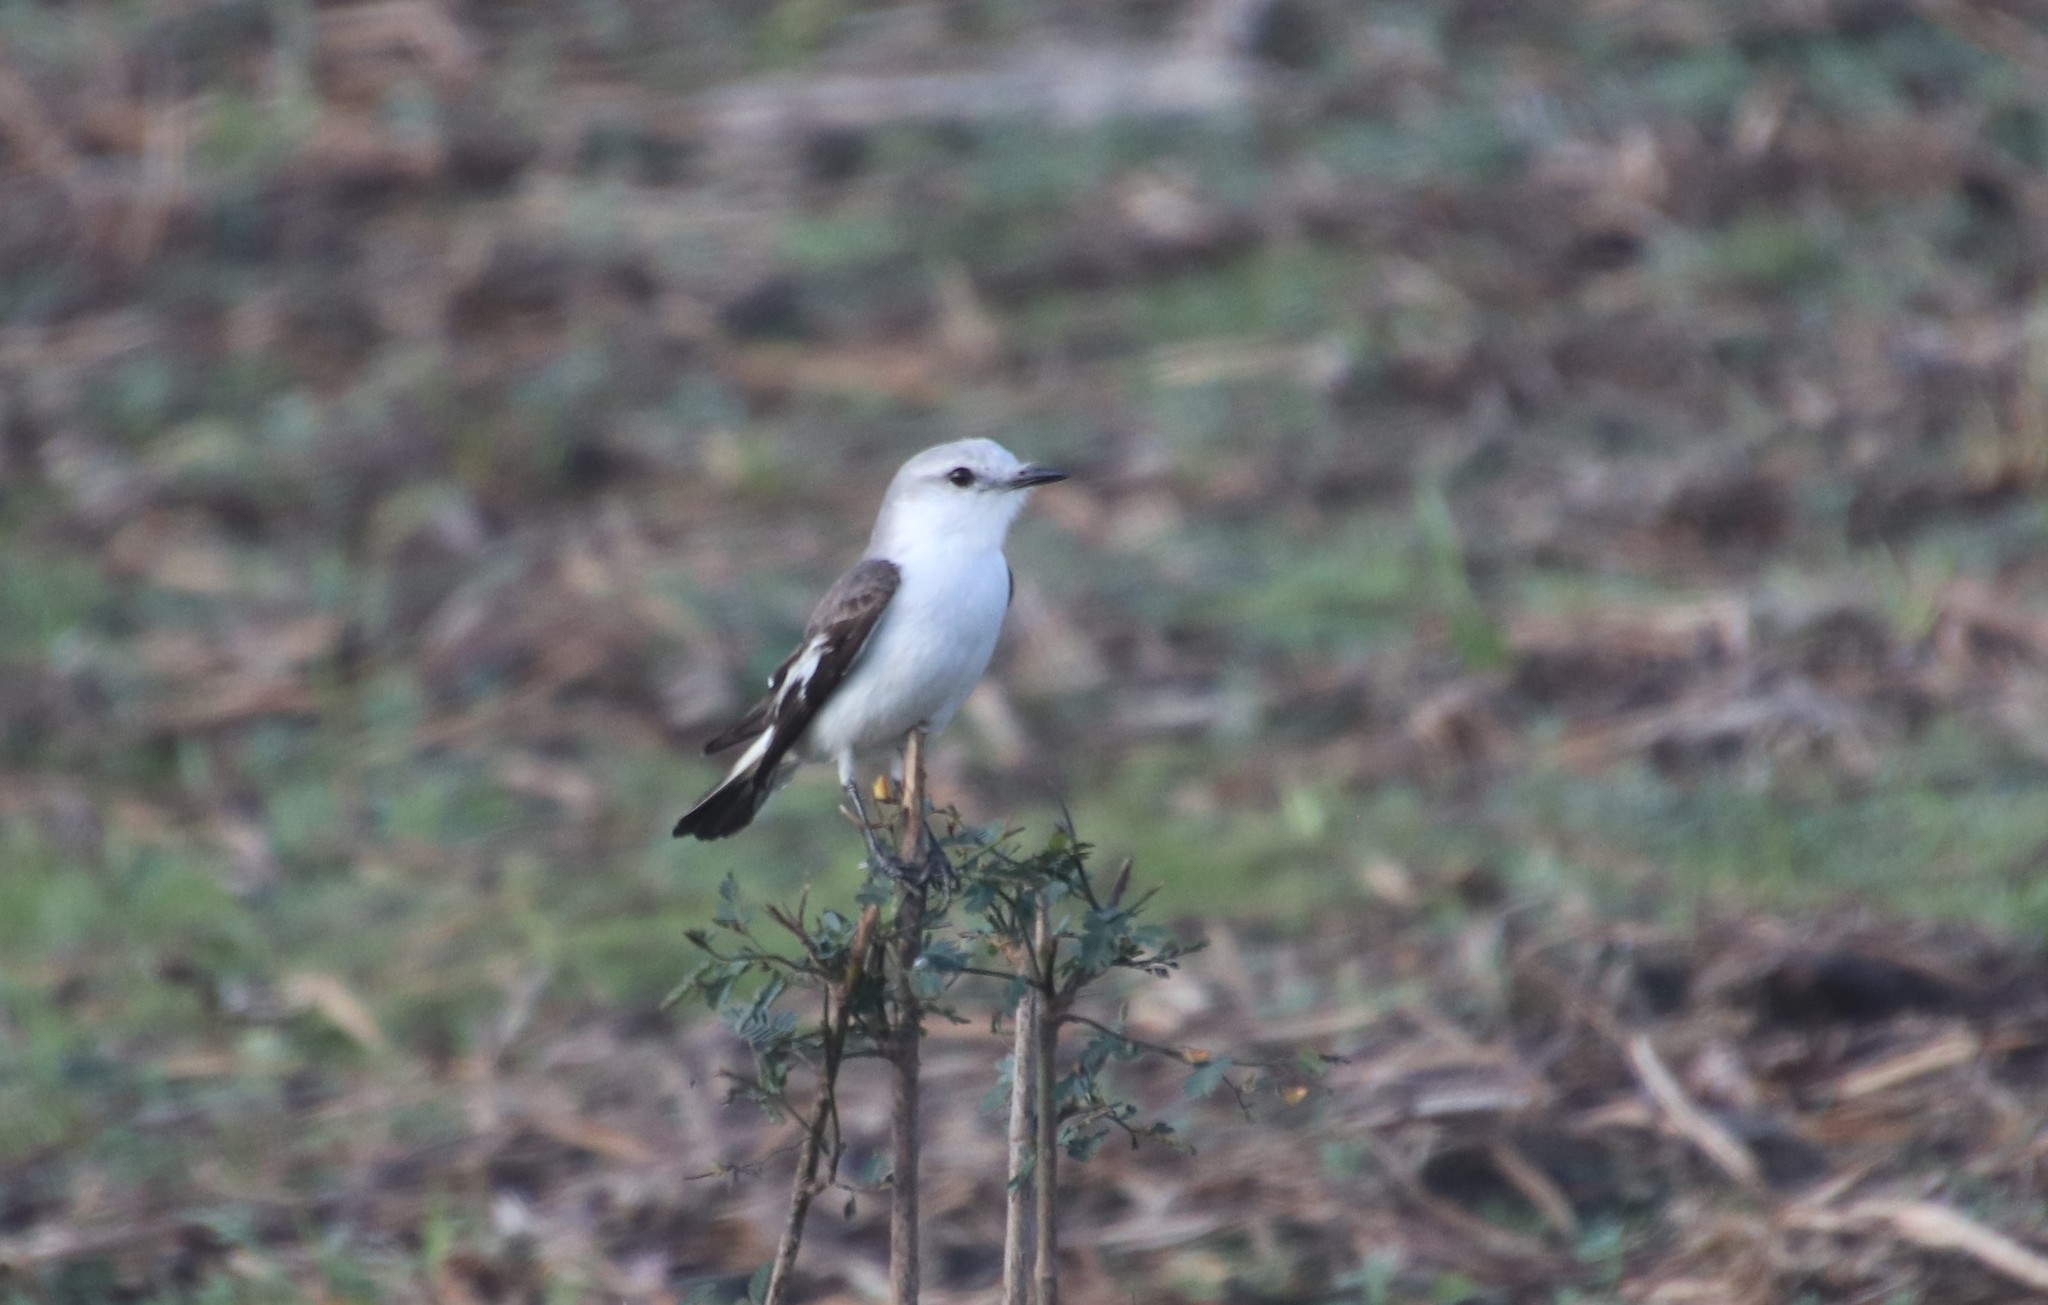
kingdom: Animalia
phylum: Chordata
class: Aves
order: Passeriformes
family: Tyrannidae
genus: Xolmis
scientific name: Xolmis velatus
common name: White-rumped monjita
